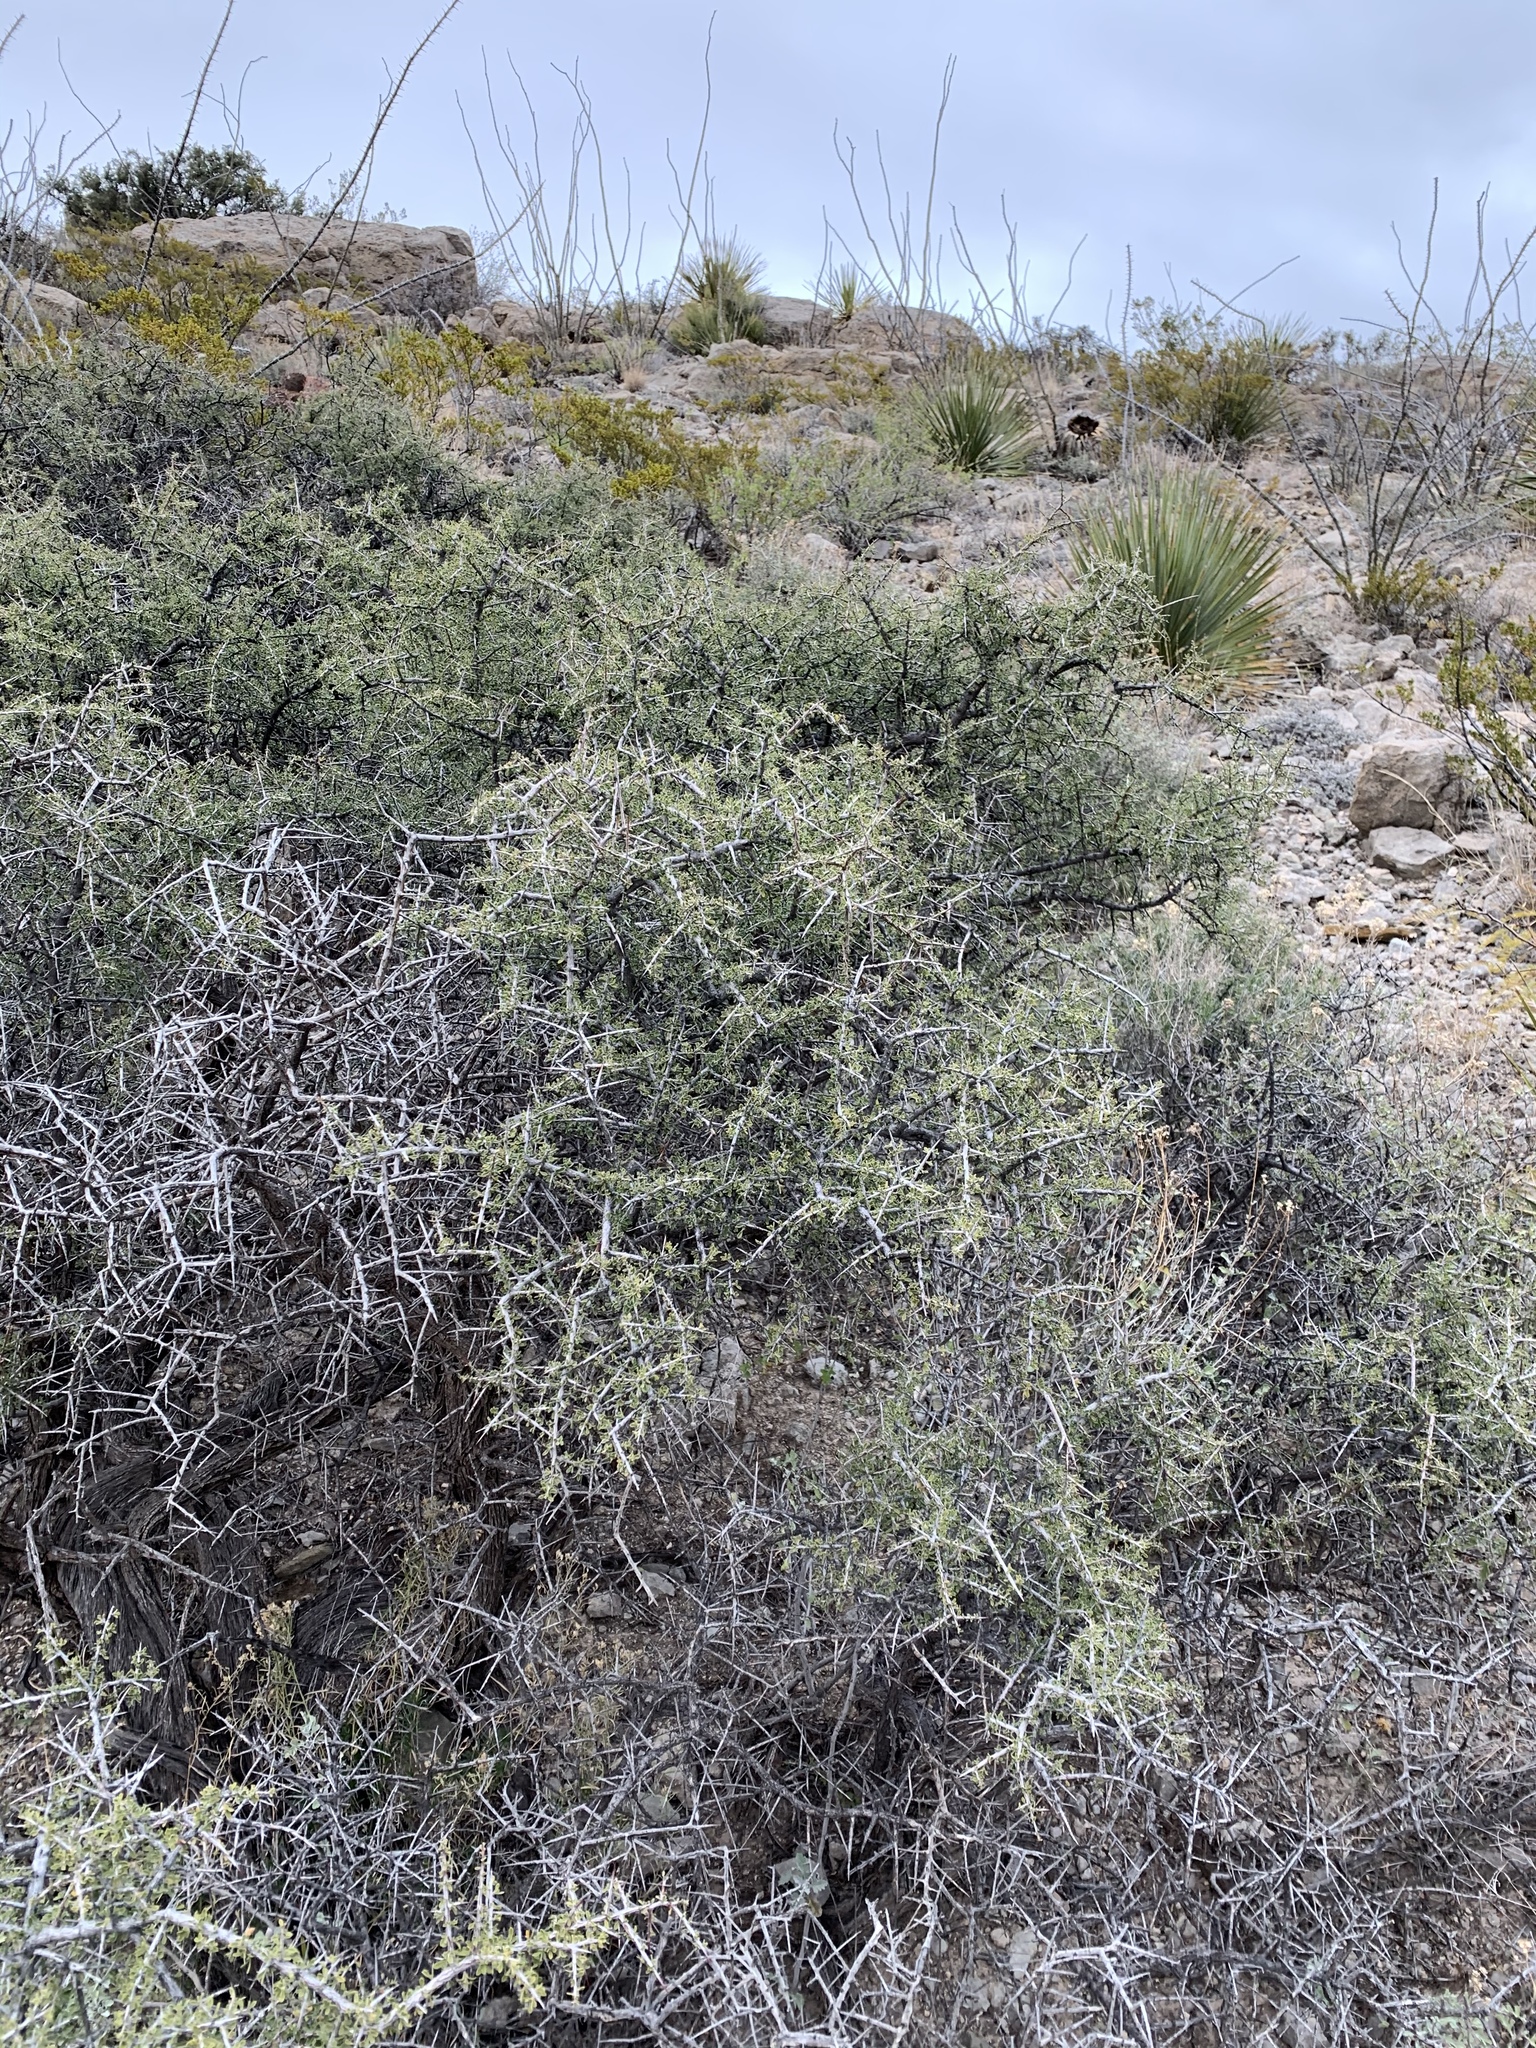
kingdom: Plantae
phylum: Tracheophyta
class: Magnoliopsida
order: Rosales
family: Rhamnaceae
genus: Condalia
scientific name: Condalia warnockii
